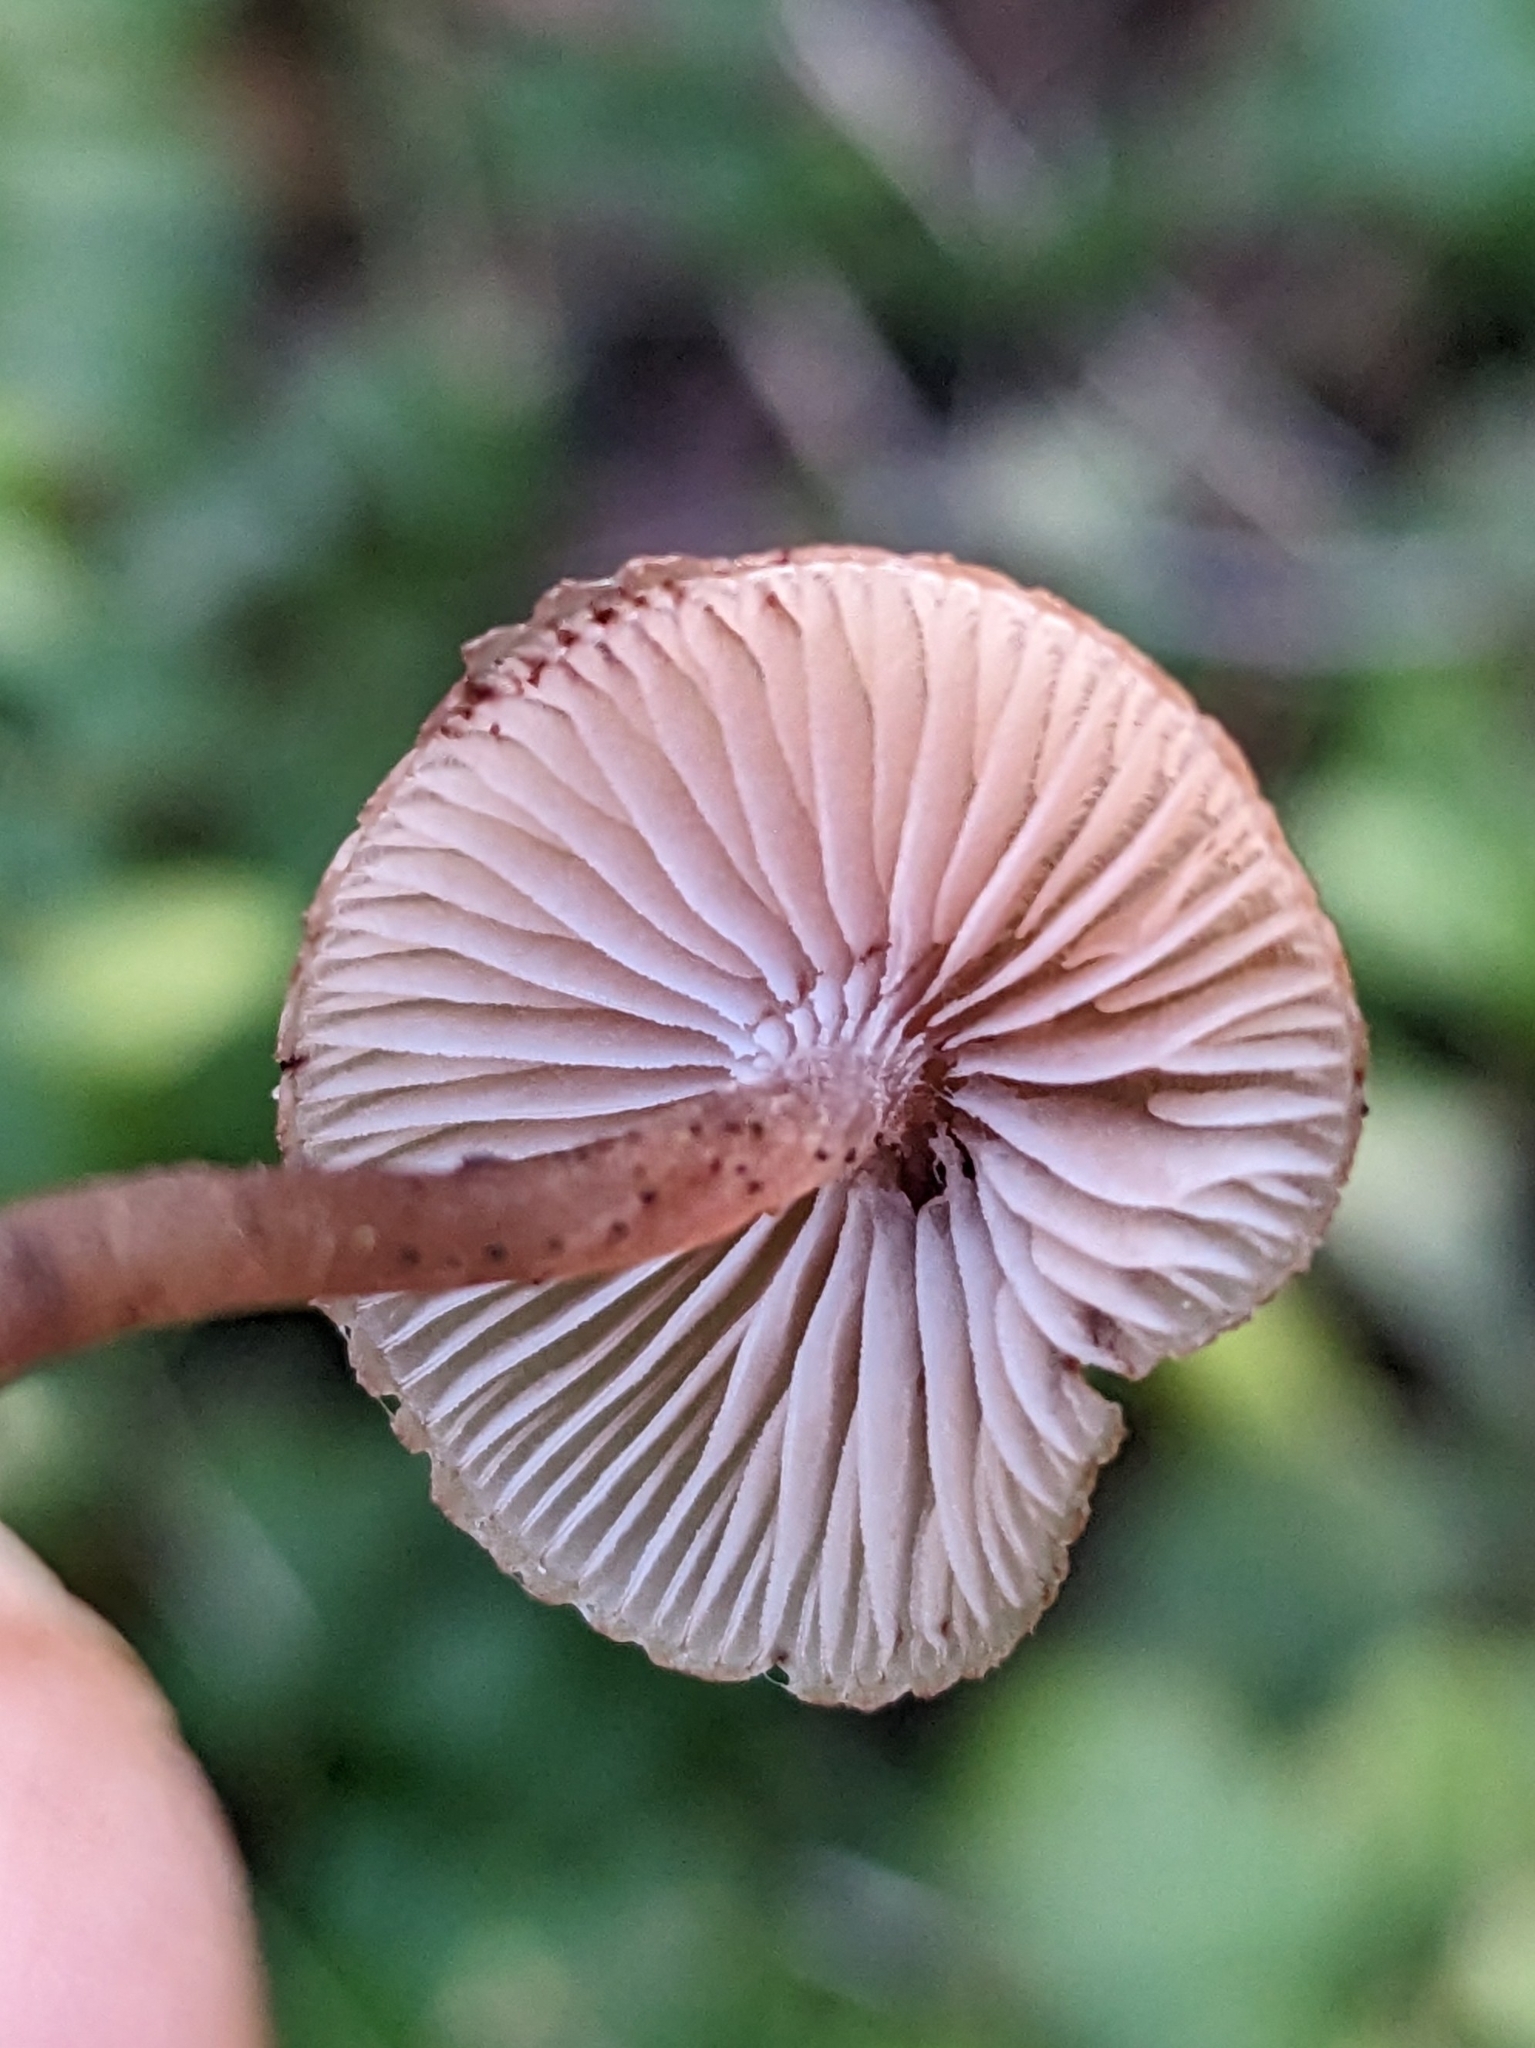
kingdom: Fungi
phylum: Basidiomycota
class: Agaricomycetes
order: Agaricales
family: Mycenaceae
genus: Mycena
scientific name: Mycena haematopus
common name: Burgundydrop bonnet
